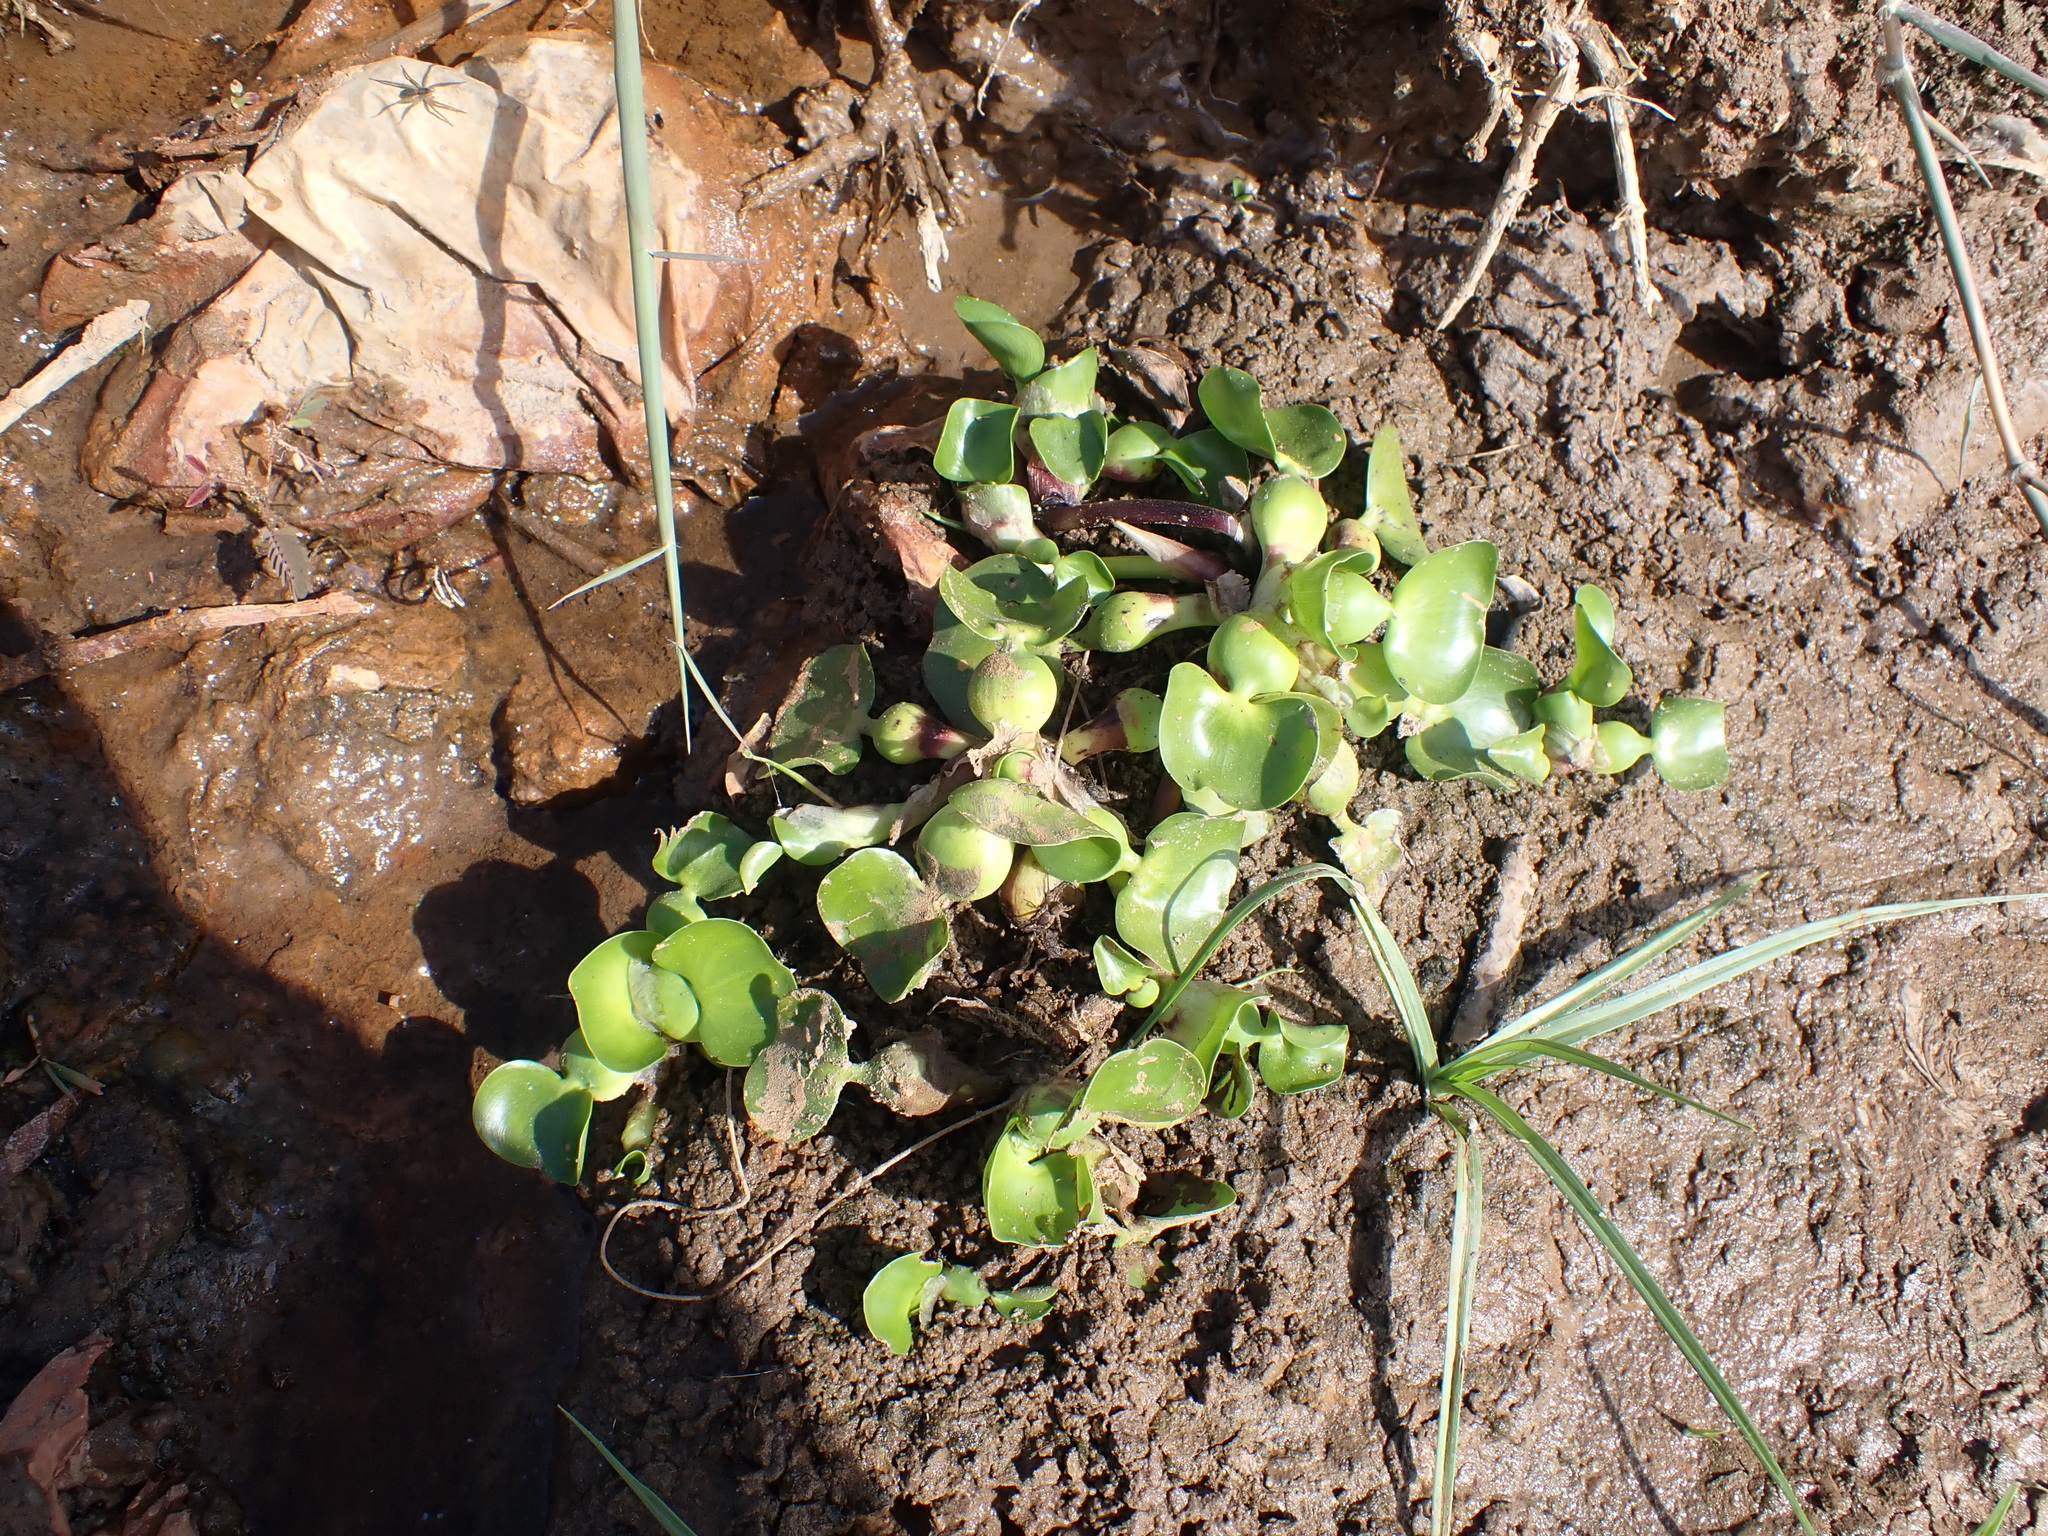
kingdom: Plantae
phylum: Tracheophyta
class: Liliopsida
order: Commelinales
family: Pontederiaceae
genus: Pontederia
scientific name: Pontederia crassipes
